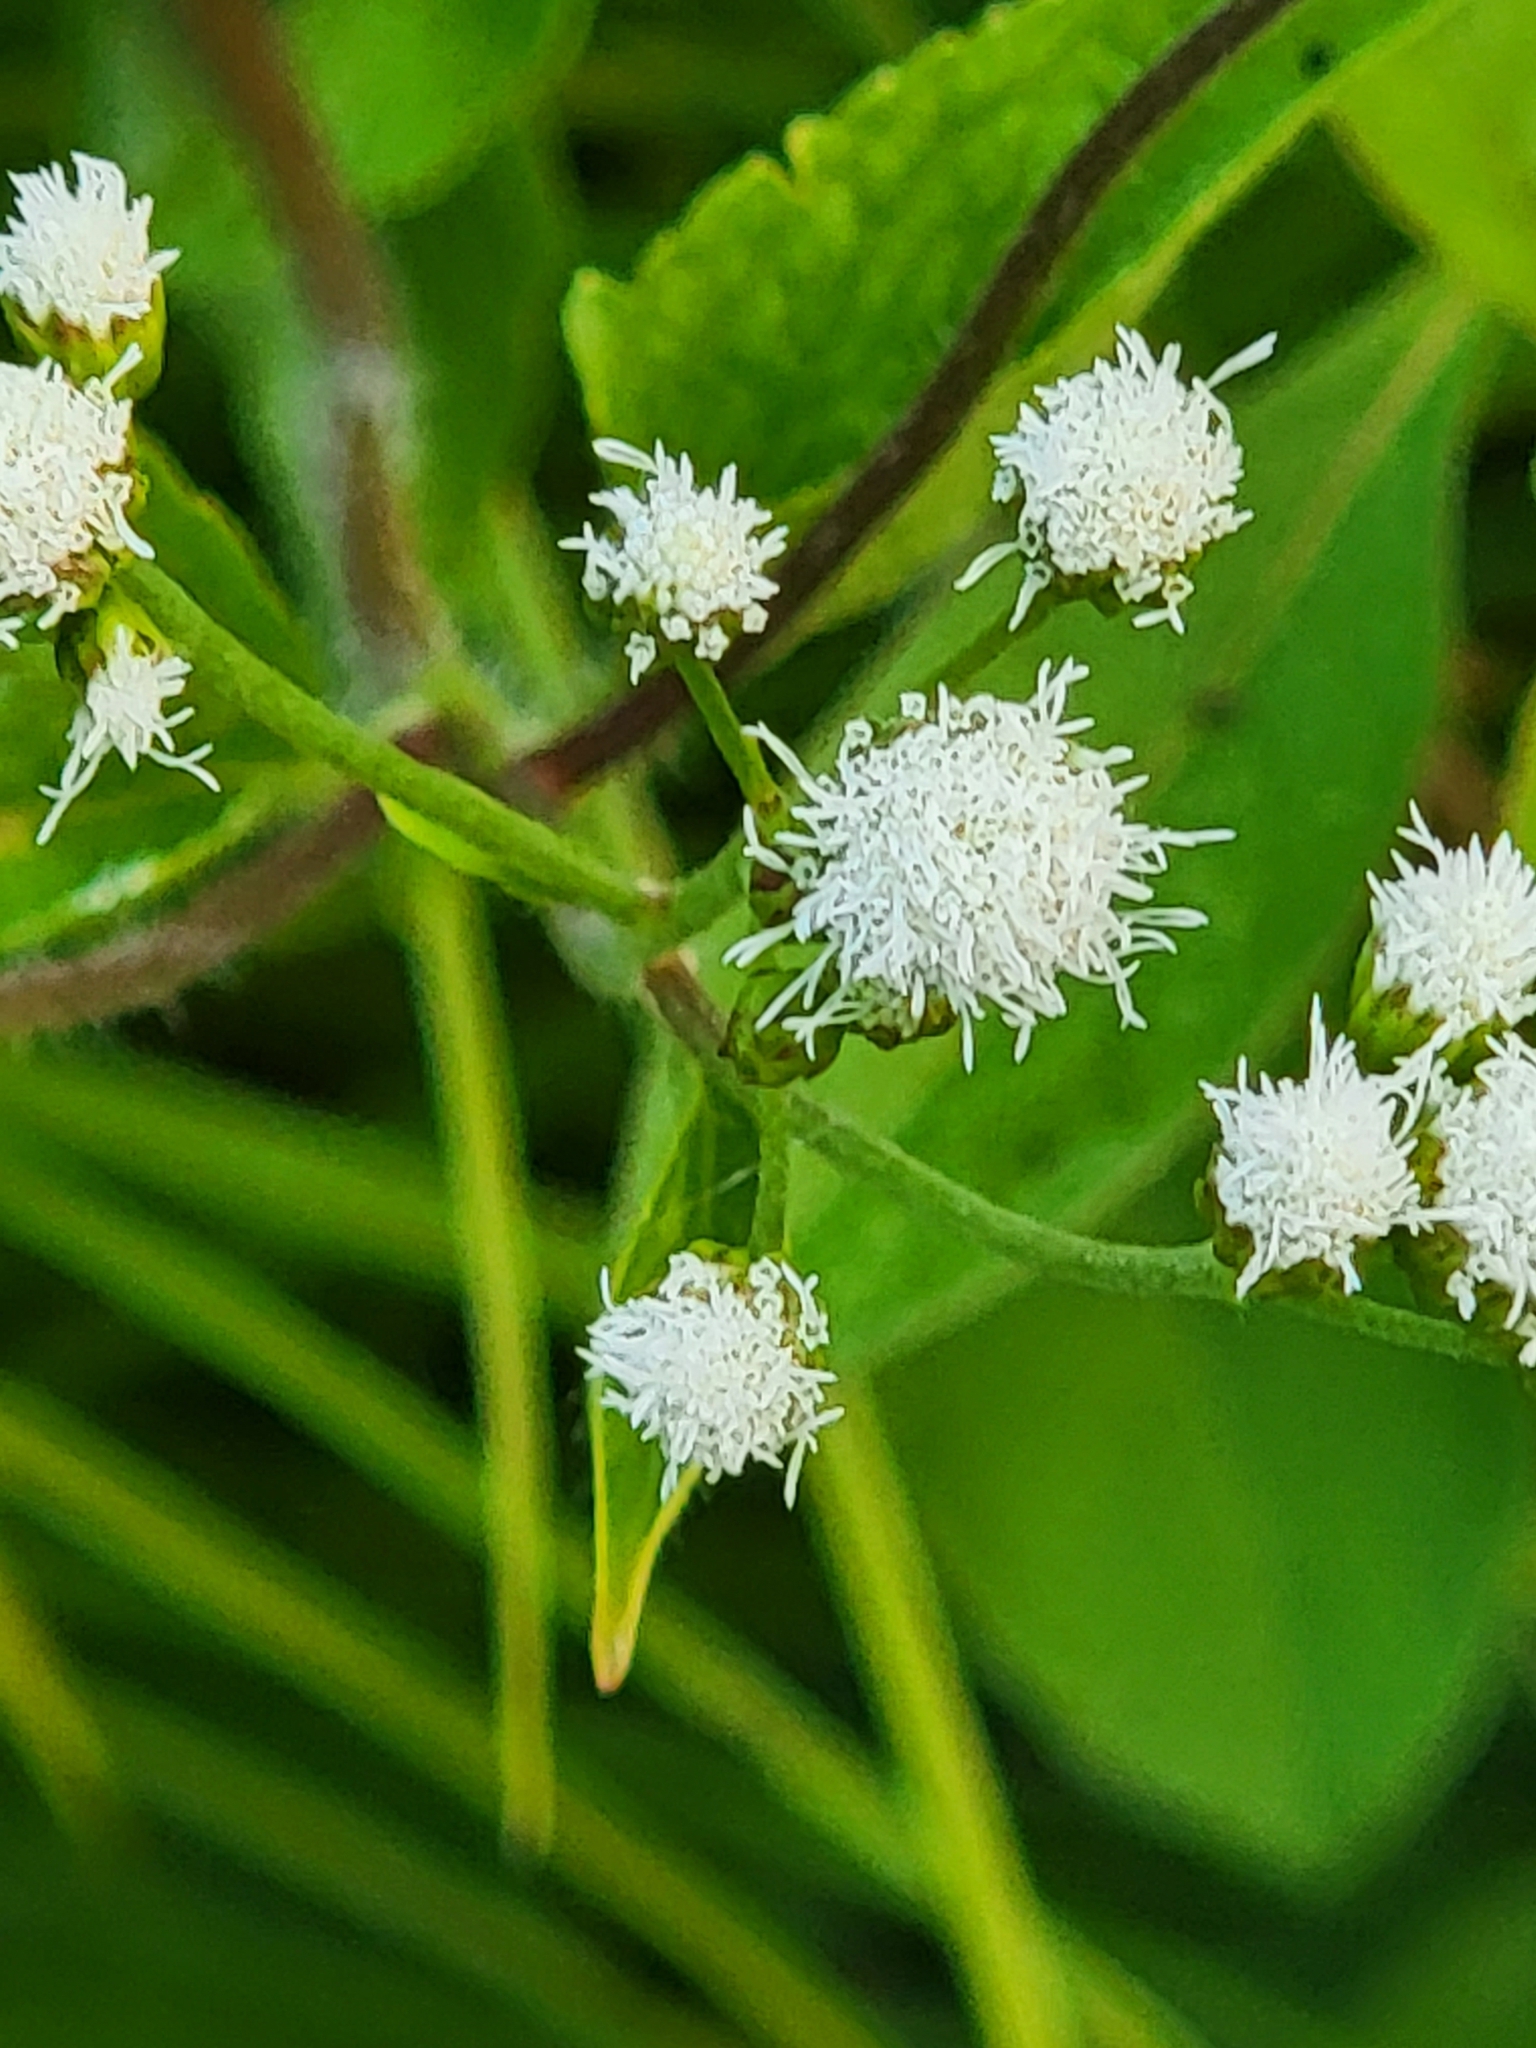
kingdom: Plantae
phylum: Tracheophyta
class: Magnoliopsida
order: Asterales
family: Asteraceae
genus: Ageratum
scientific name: Ageratum conyzoides
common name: Tropical whiteweed
